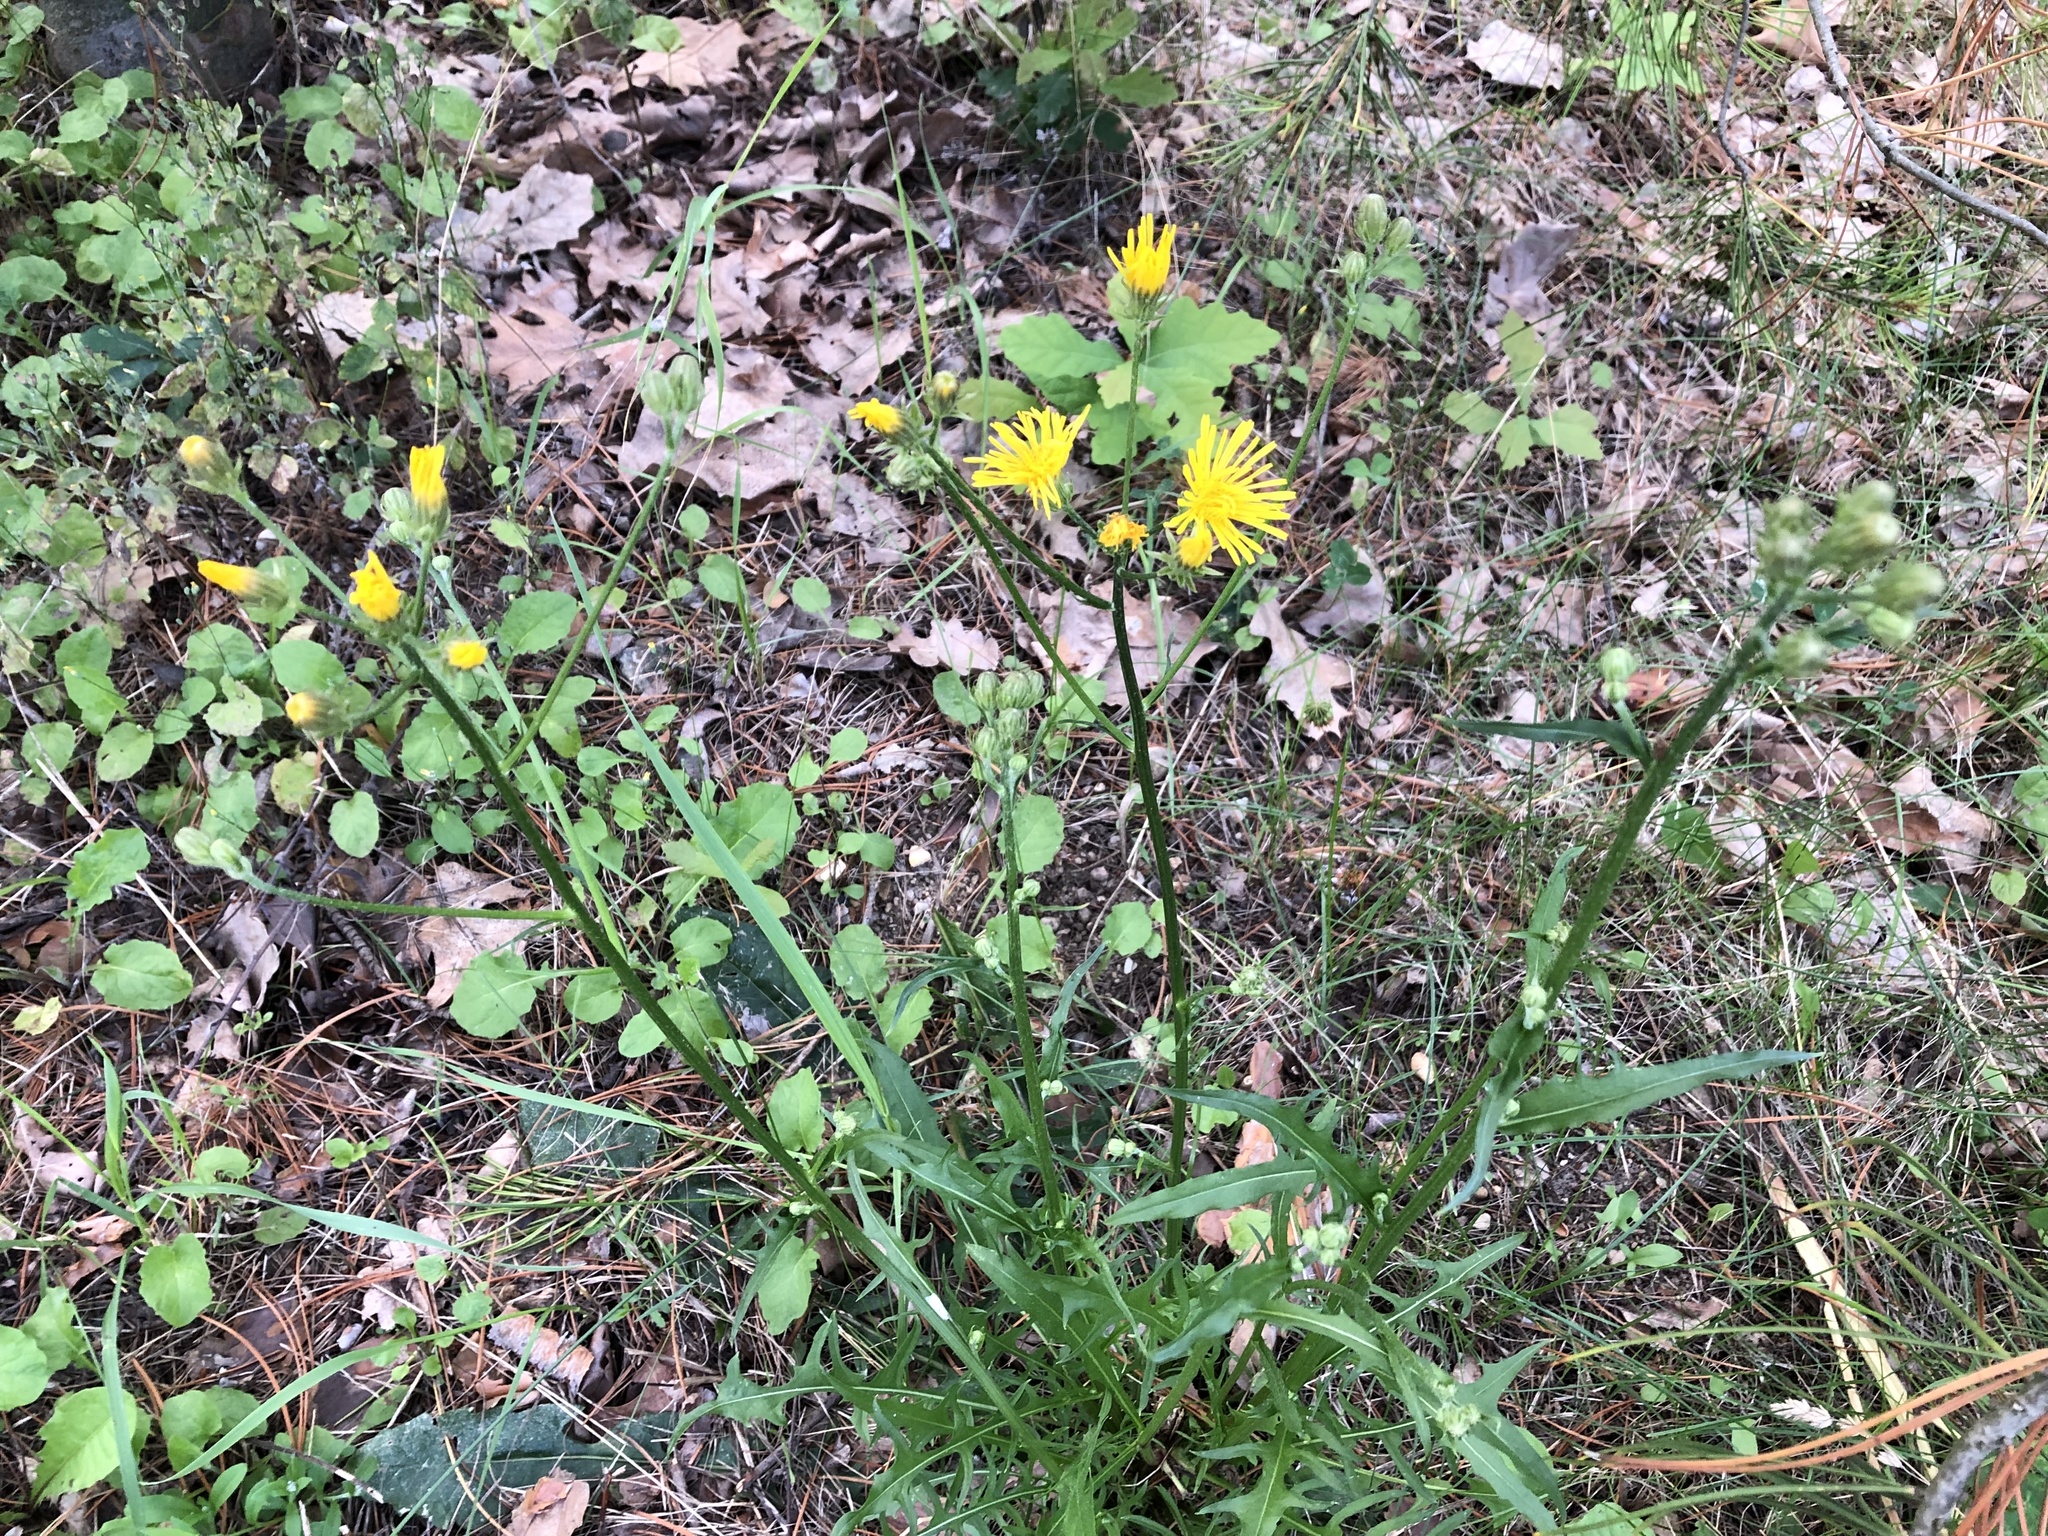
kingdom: Plantae
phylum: Tracheophyta
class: Magnoliopsida
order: Asterales
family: Asteraceae
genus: Crepis
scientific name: Crepis biennis
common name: Rough hawk's-beard
